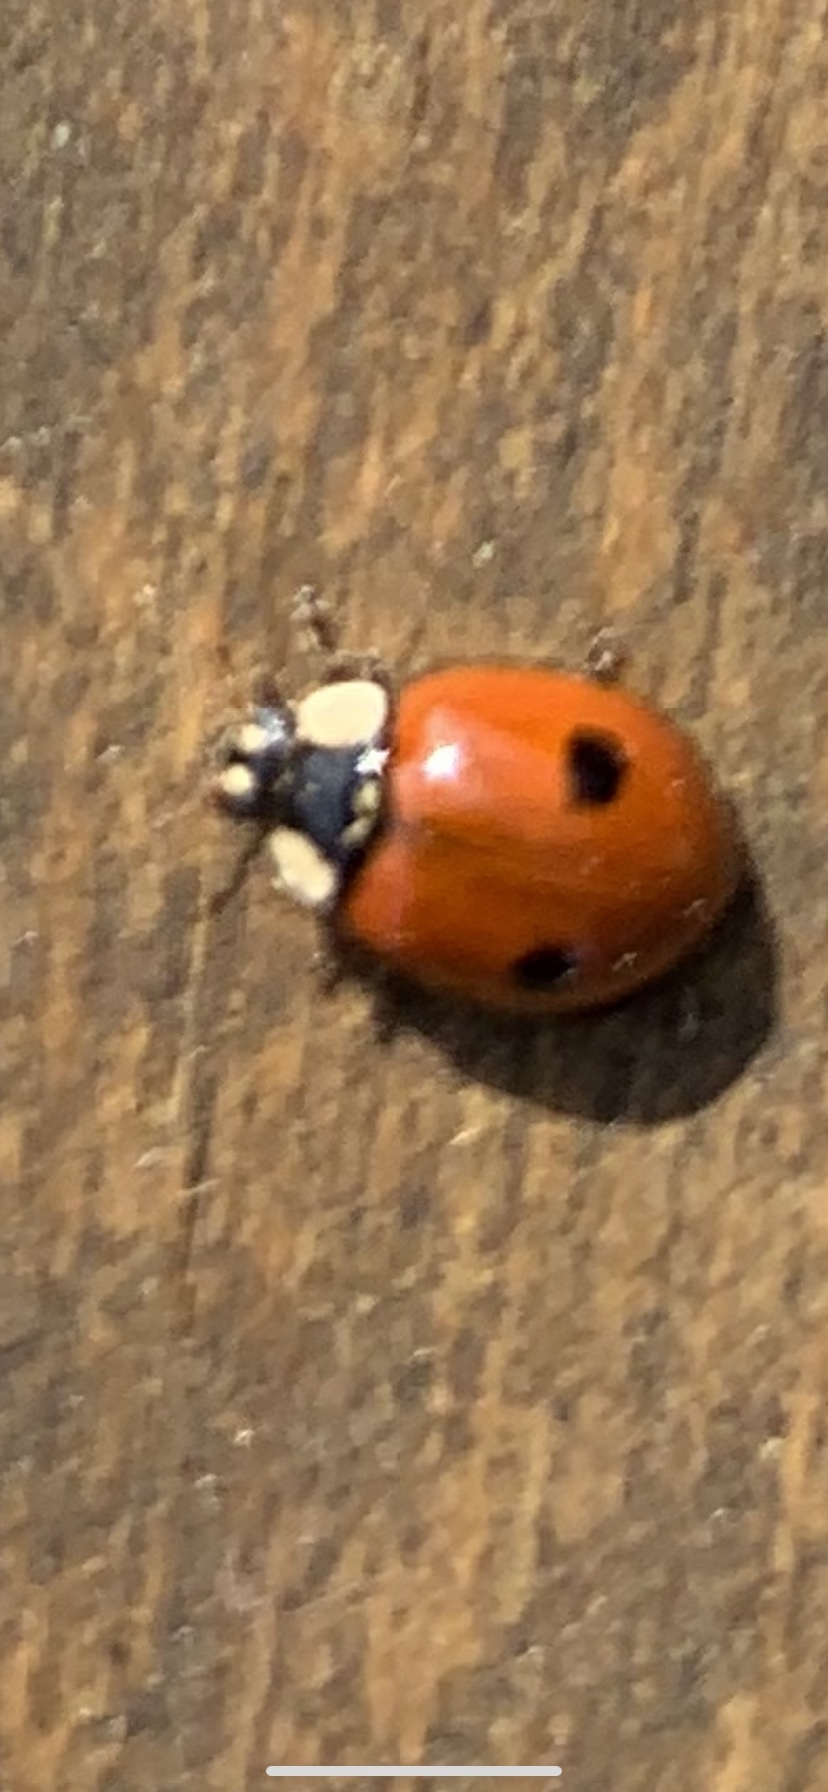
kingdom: Animalia
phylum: Arthropoda
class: Insecta
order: Coleoptera
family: Coccinellidae
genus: Adalia
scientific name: Adalia bipunctata
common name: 2-spot ladybird
